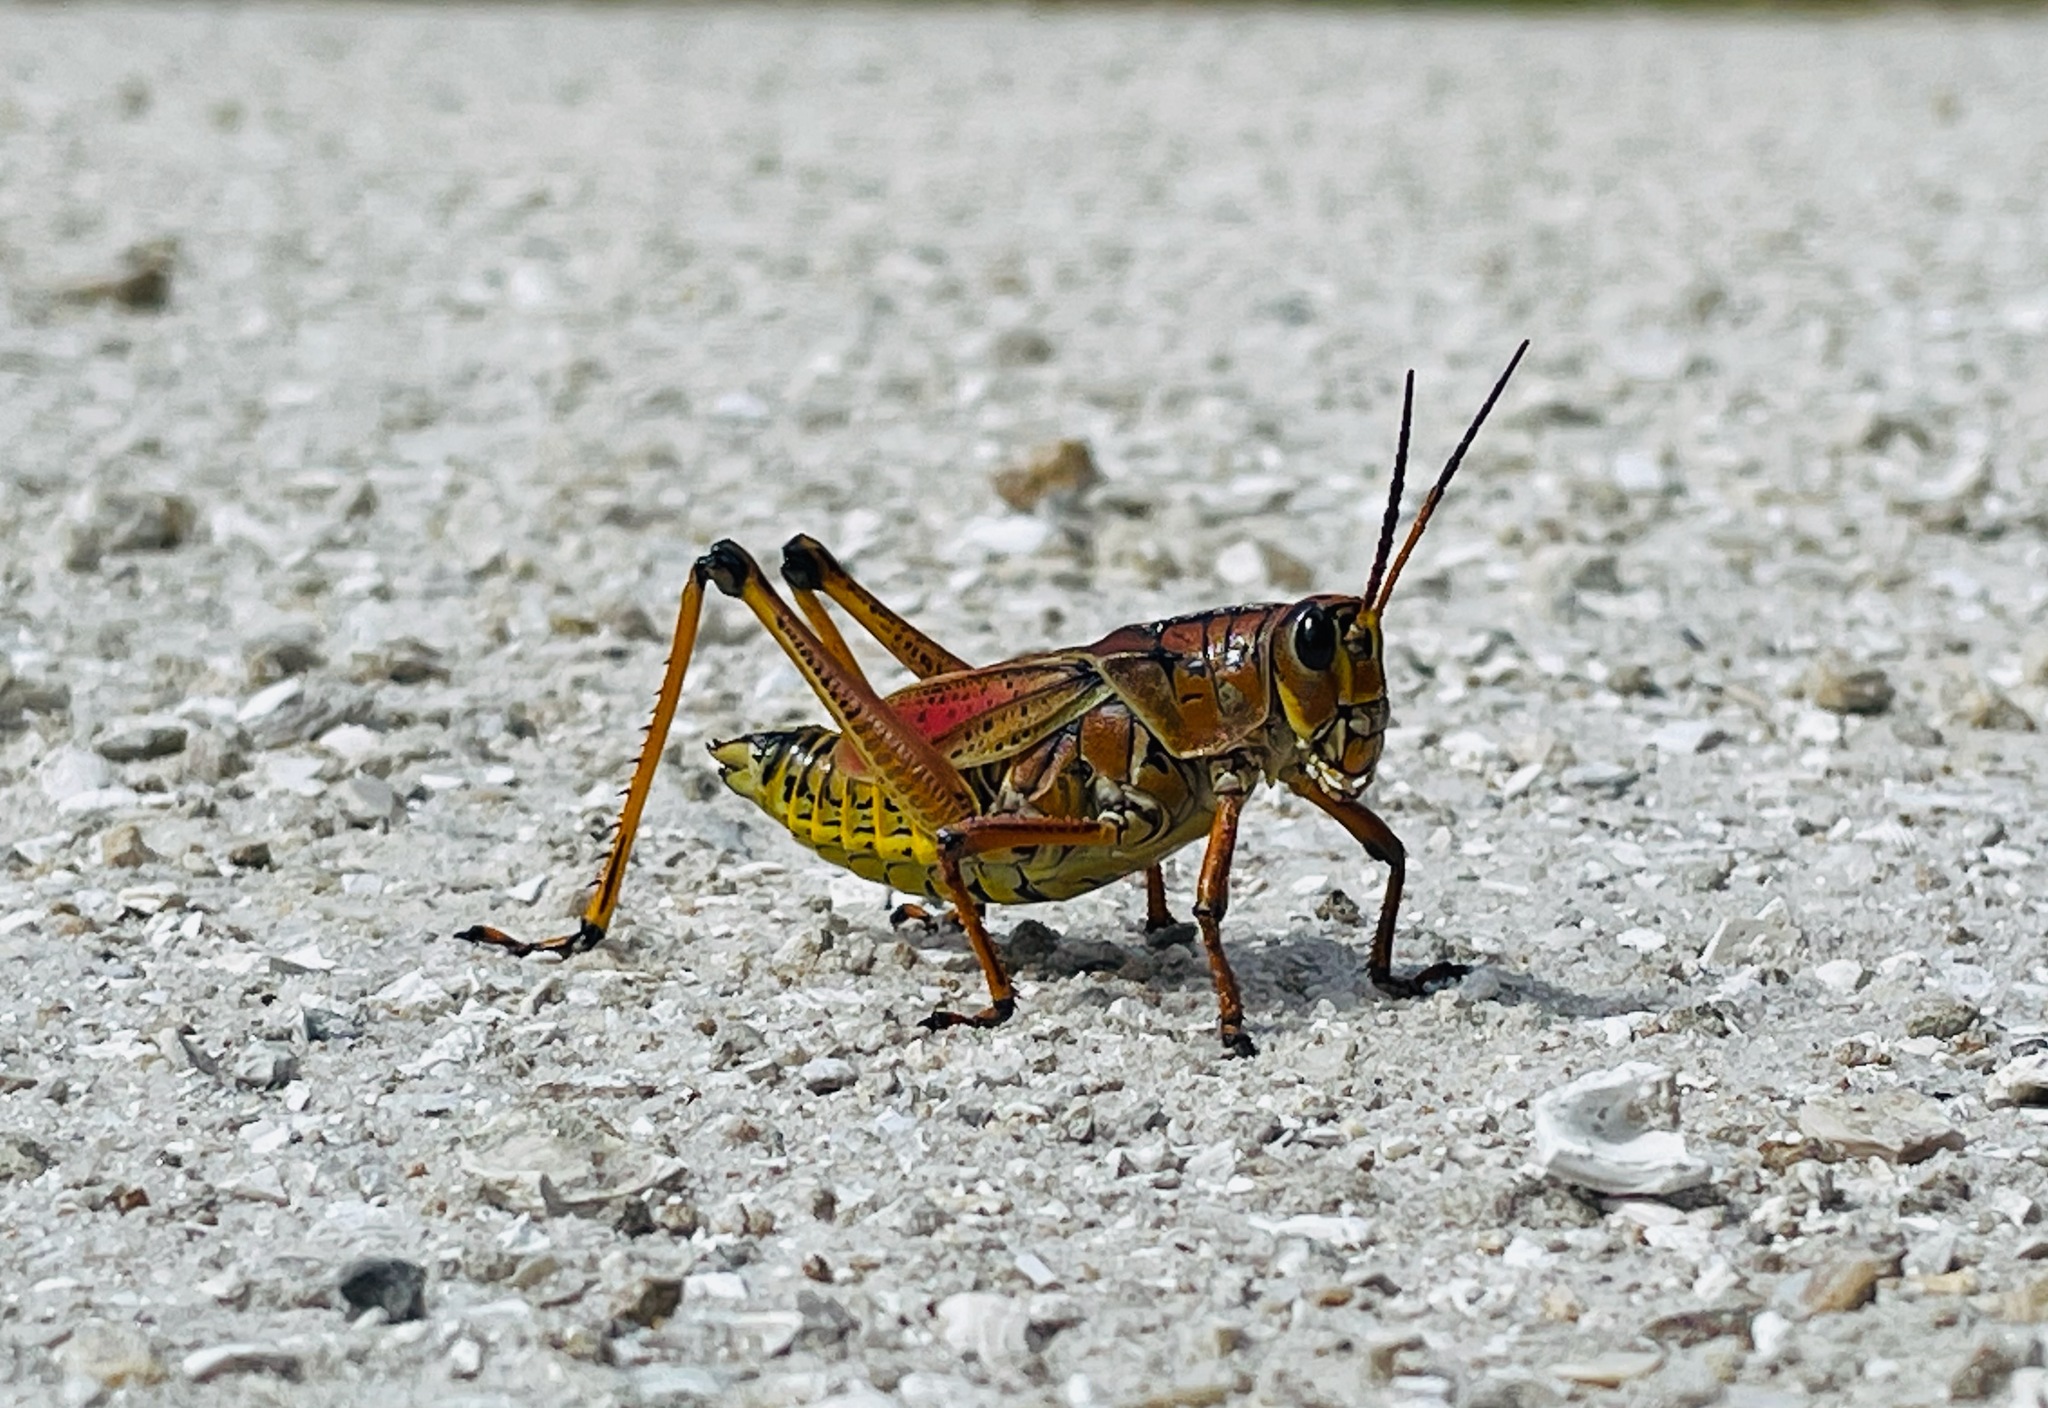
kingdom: Animalia
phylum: Arthropoda
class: Insecta
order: Orthoptera
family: Romaleidae
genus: Romalea
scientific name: Romalea microptera
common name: Eastern lubber grasshopper
